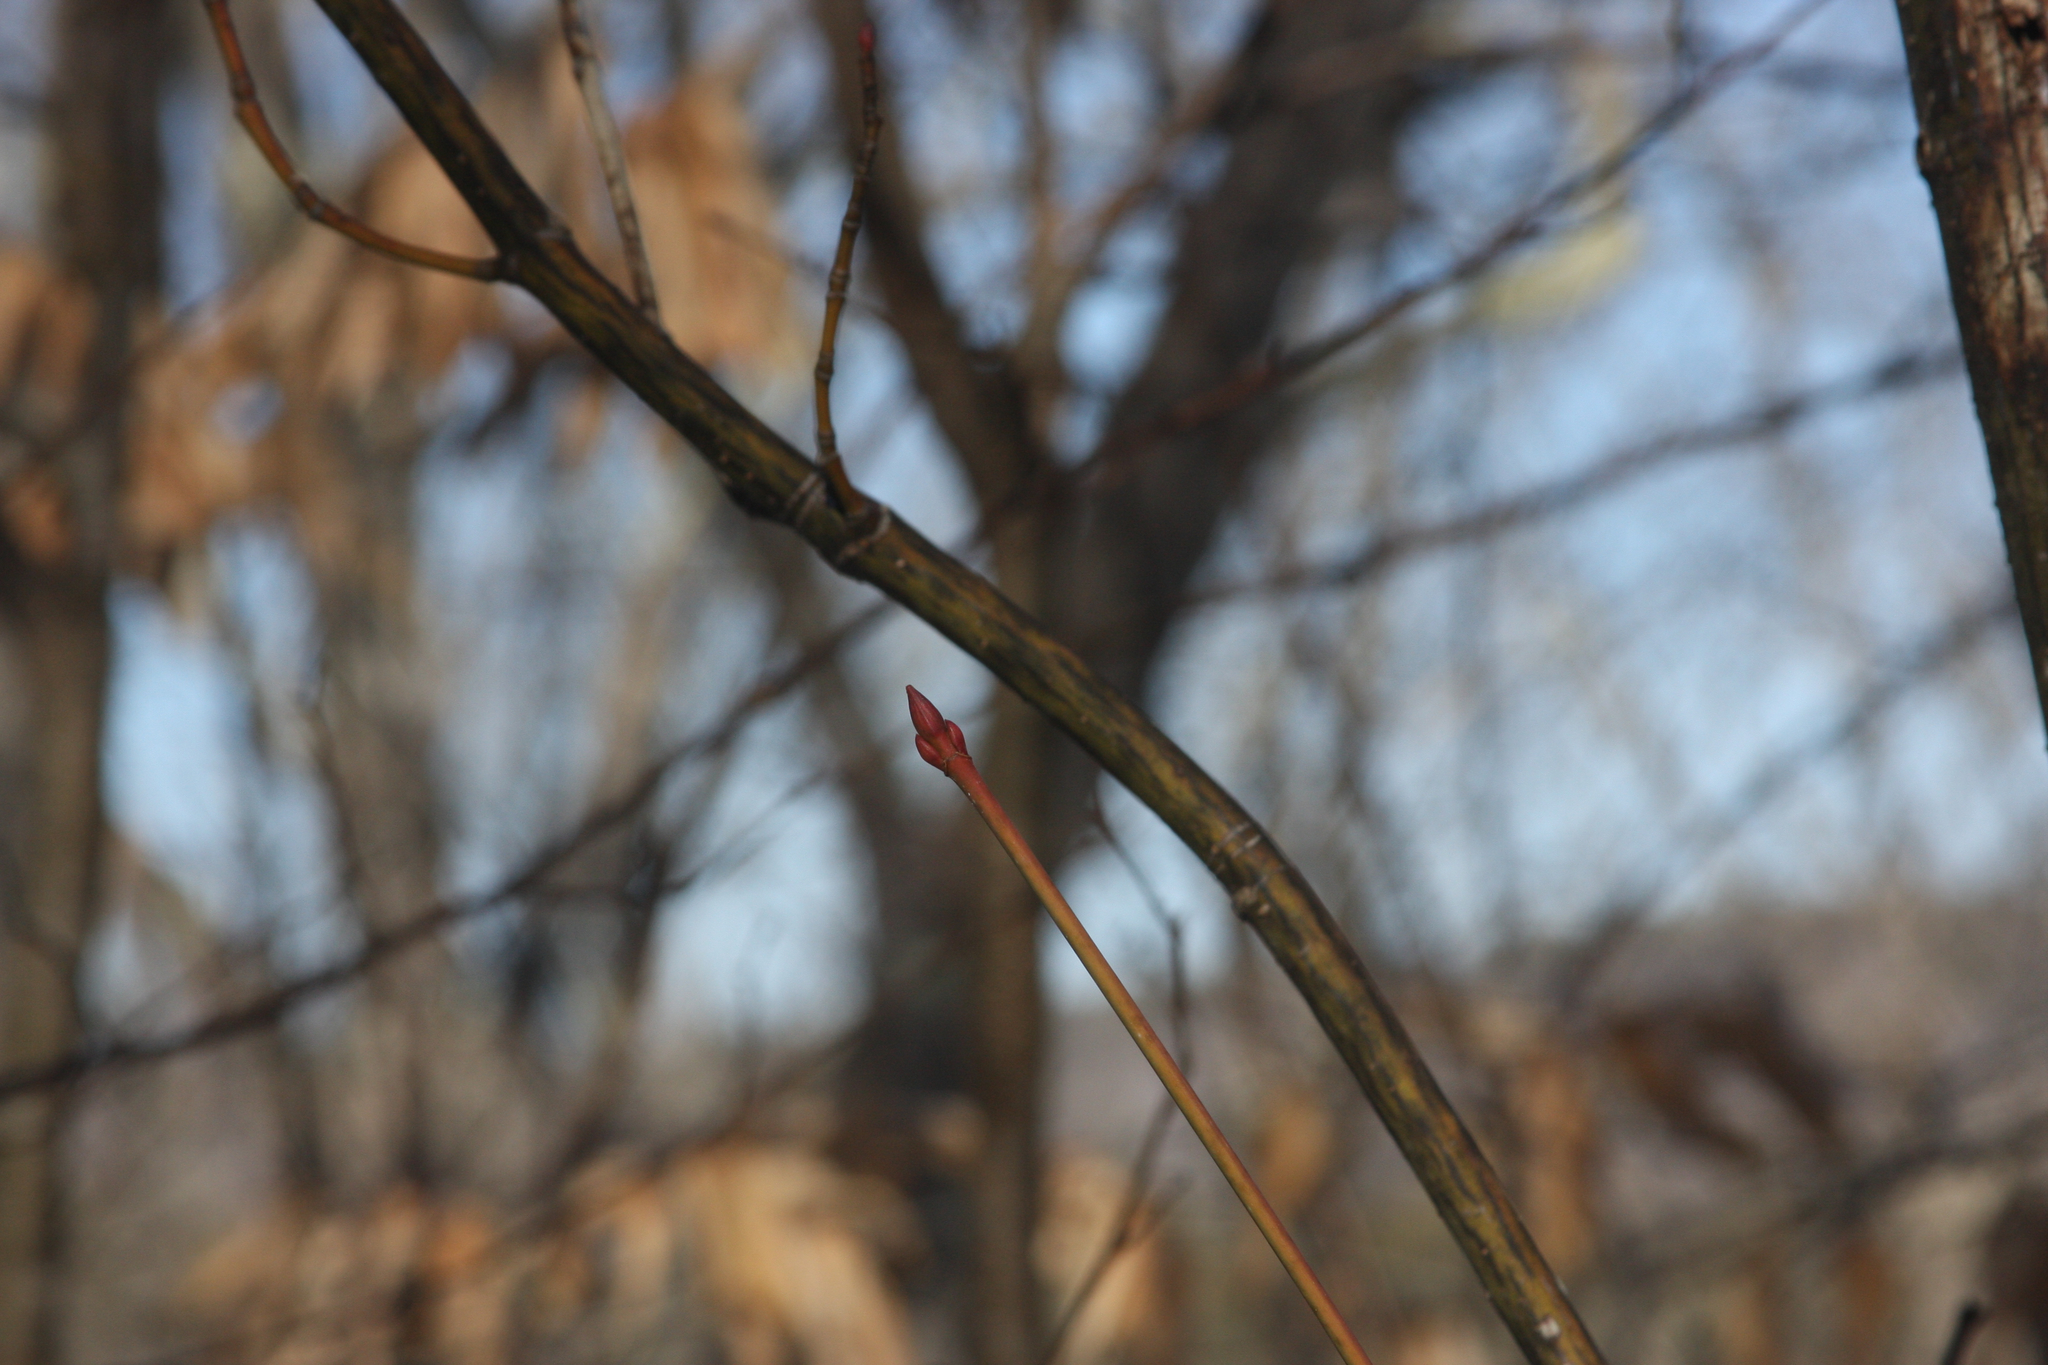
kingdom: Plantae
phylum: Tracheophyta
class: Magnoliopsida
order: Sapindales
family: Sapindaceae
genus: Acer
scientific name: Acer pensylvanicum
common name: Moosewood
